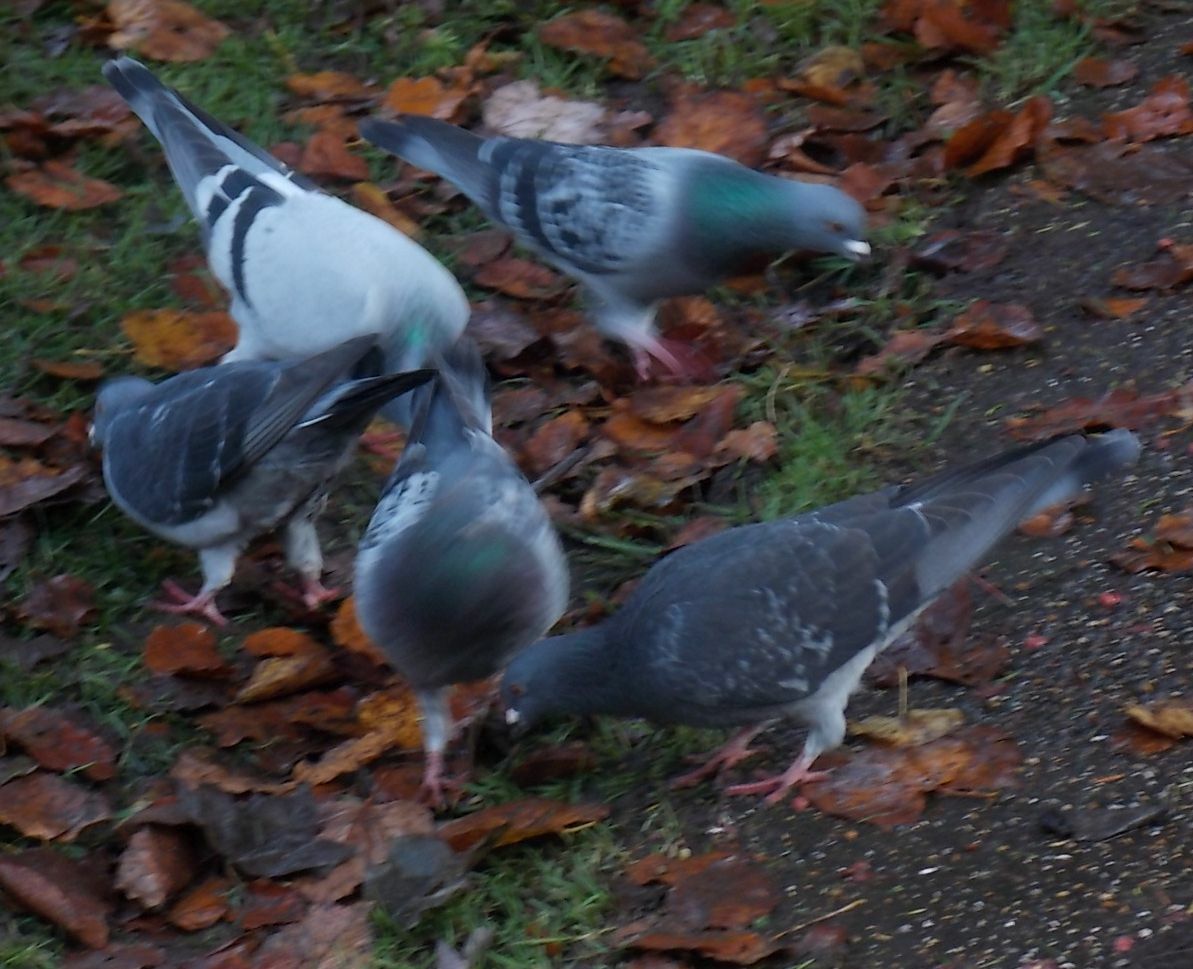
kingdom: Animalia
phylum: Chordata
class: Aves
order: Columbiformes
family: Columbidae
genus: Columba
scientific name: Columba livia
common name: Rock pigeon
